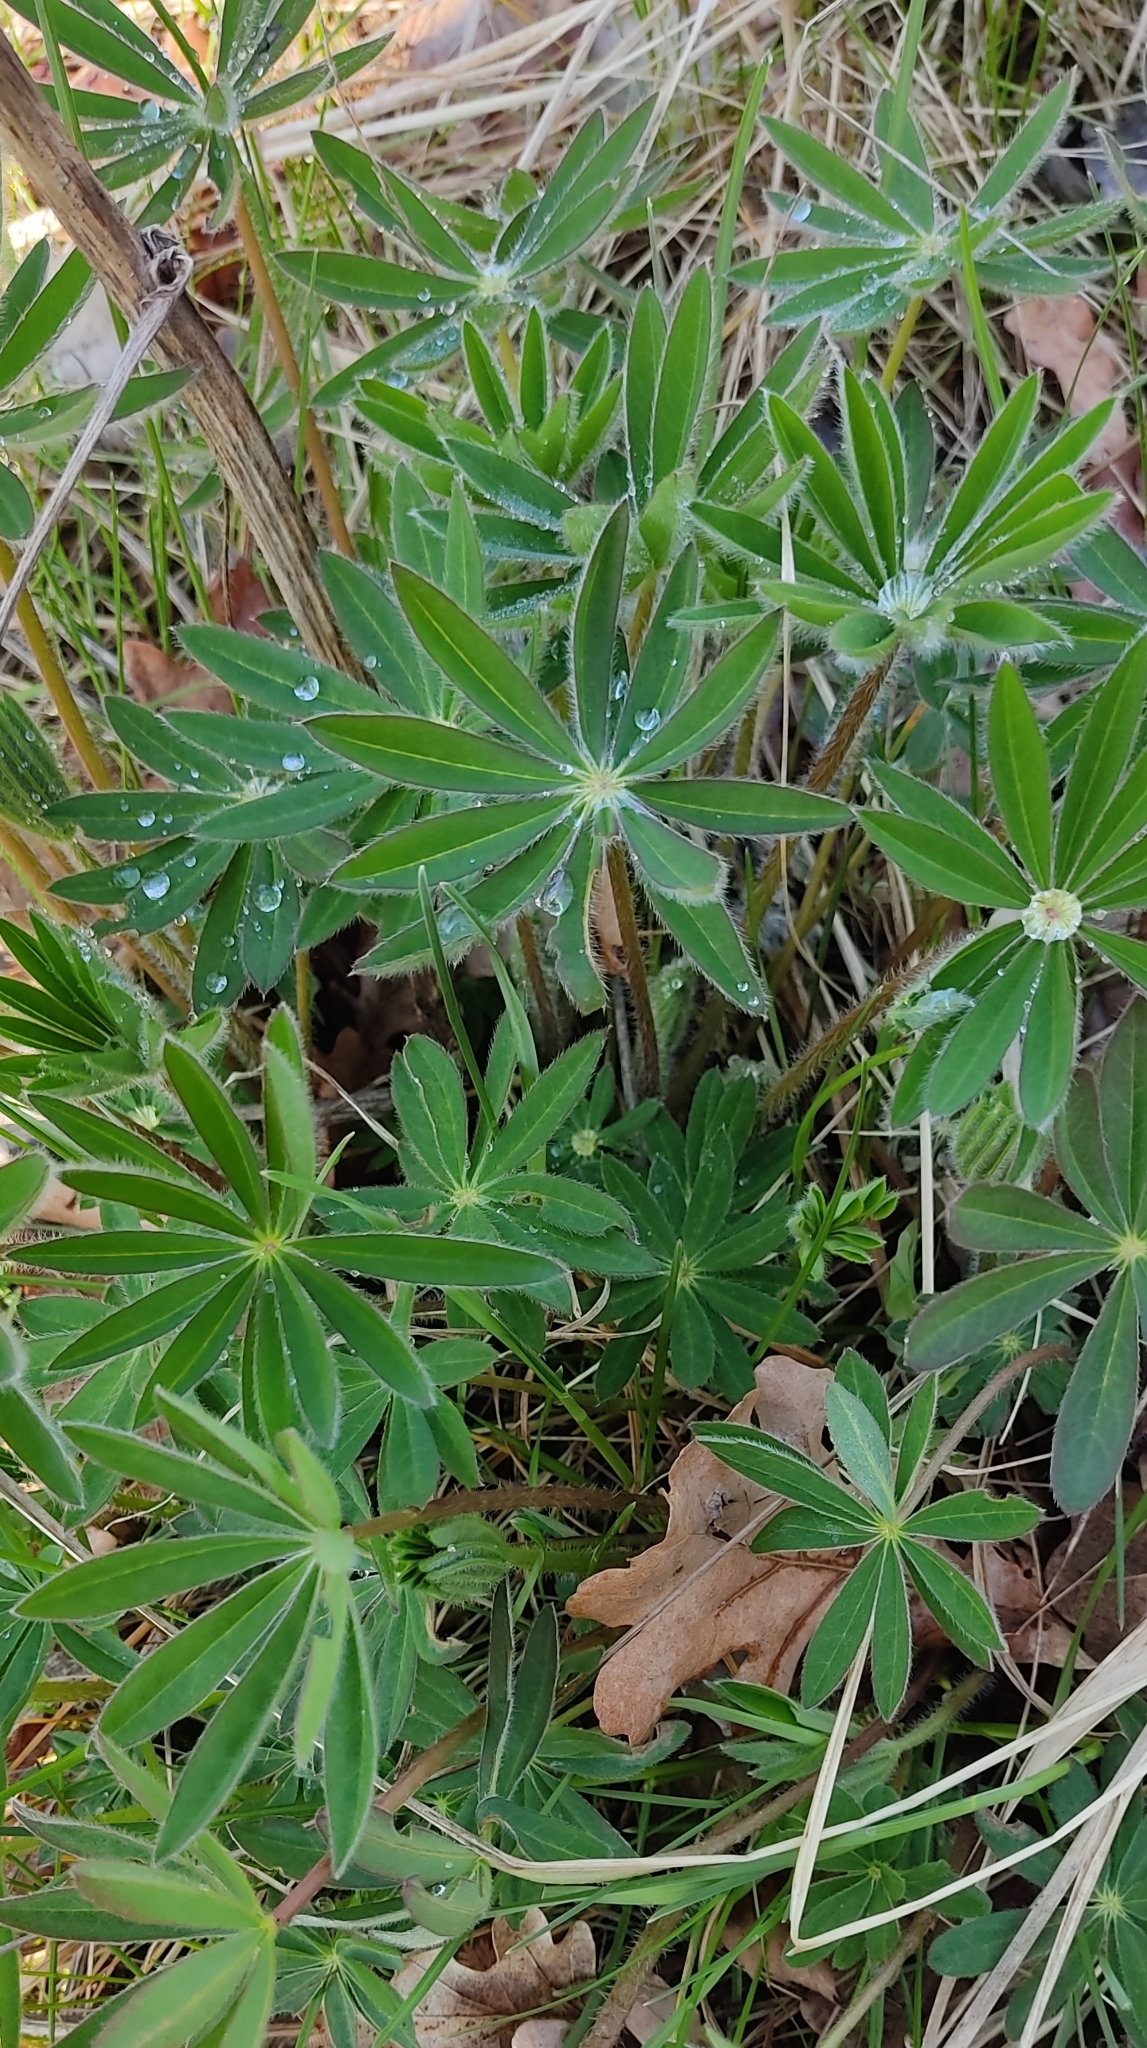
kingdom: Plantae
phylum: Tracheophyta
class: Magnoliopsida
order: Fabales
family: Fabaceae
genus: Lupinus
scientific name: Lupinus polyphyllus
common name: Garden lupin
